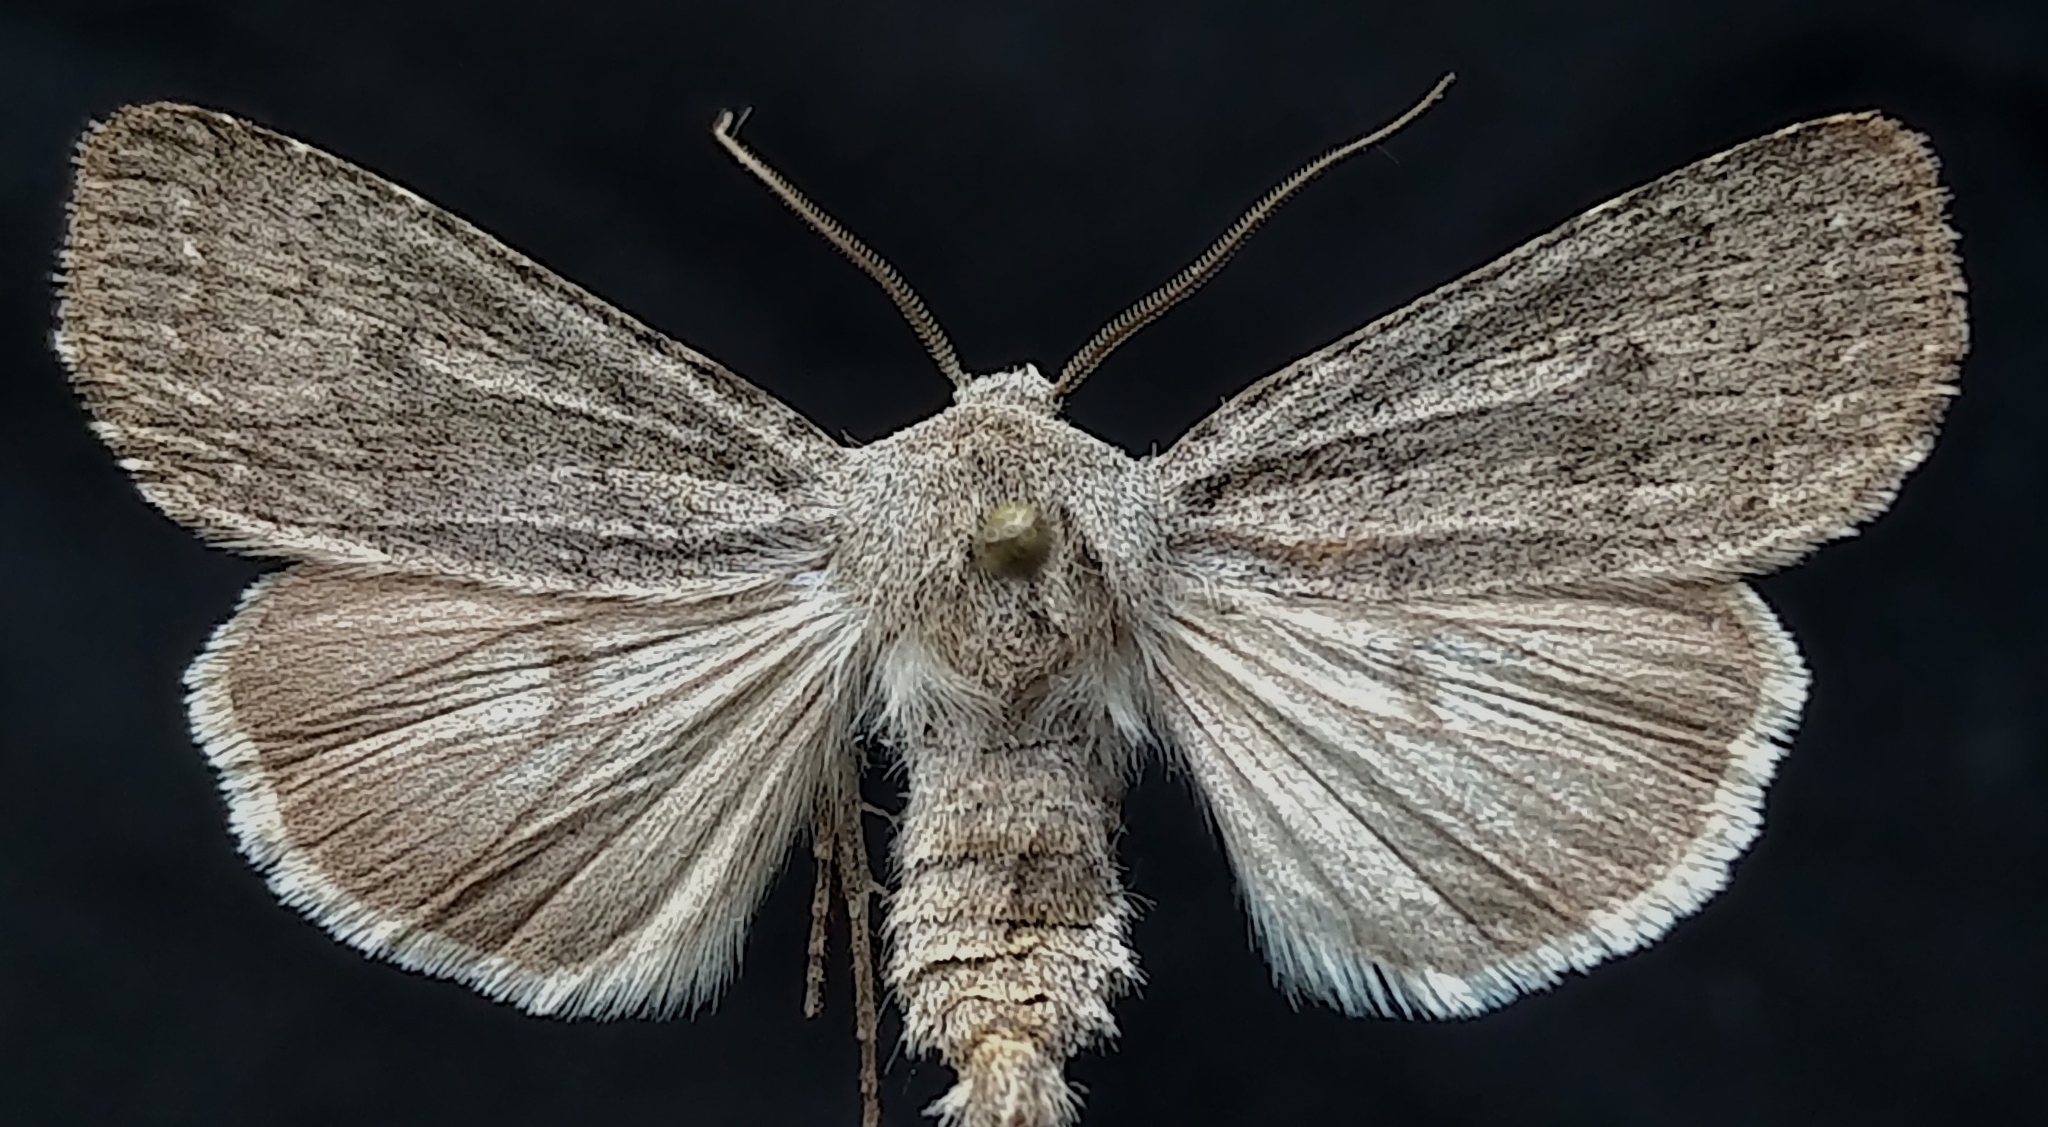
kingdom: Animalia
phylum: Arthropoda
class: Insecta
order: Lepidoptera
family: Noctuidae
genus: Euxoa
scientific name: Euxoa quebecensis
